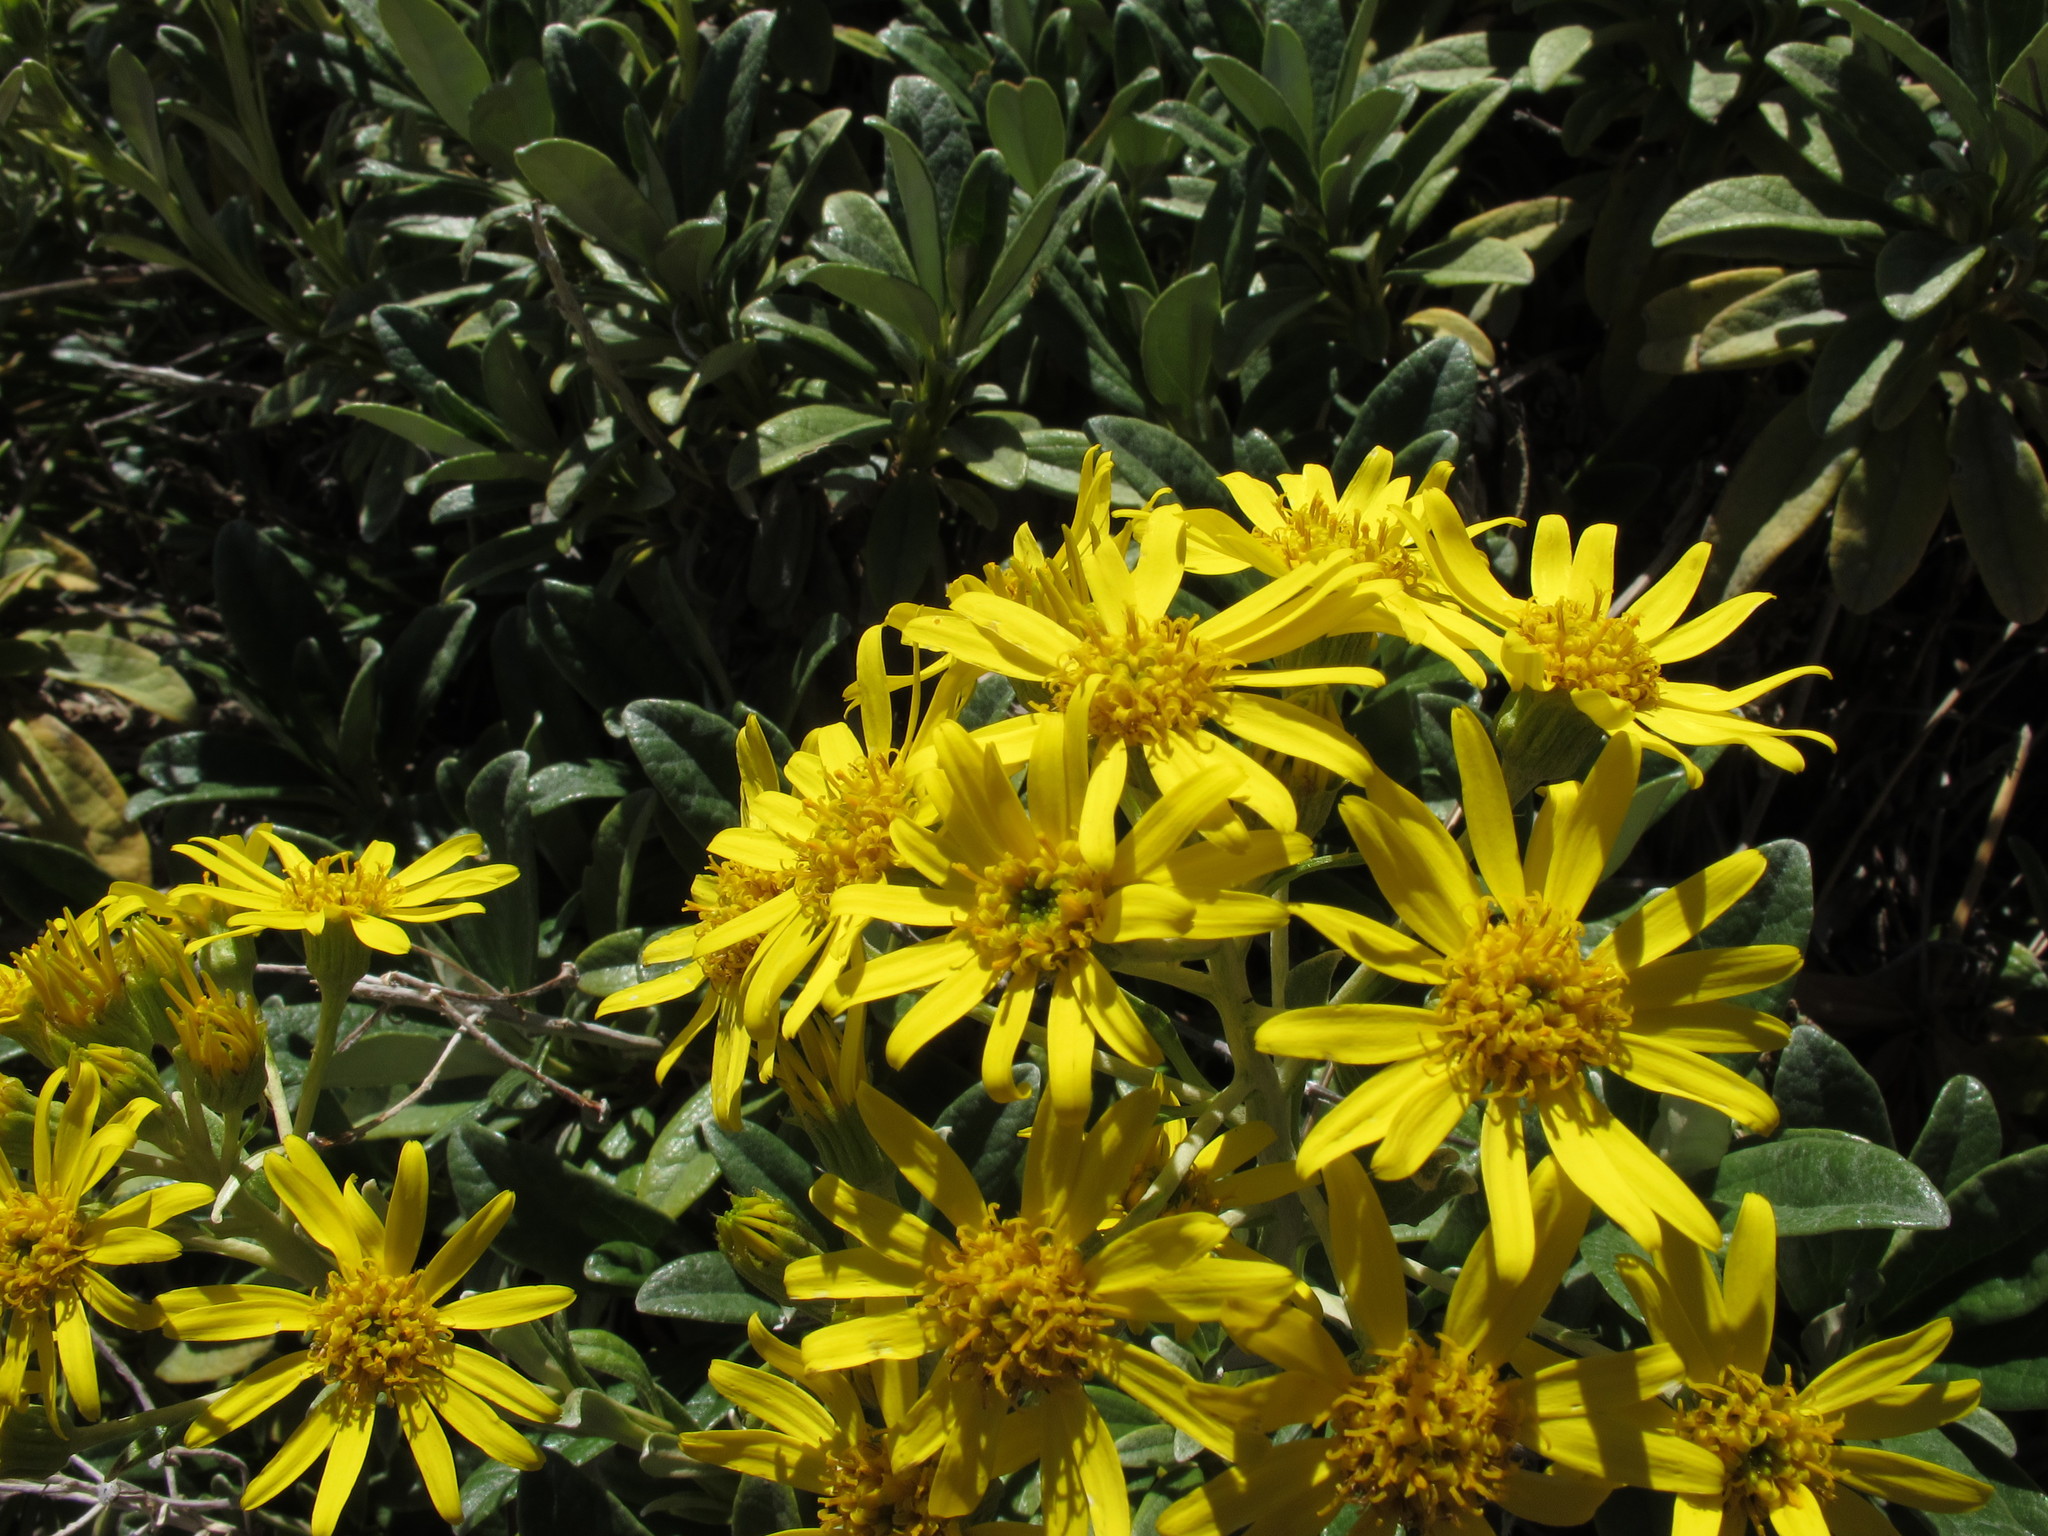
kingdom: Plantae
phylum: Tracheophyta
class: Magnoliopsida
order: Asterales
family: Asteraceae
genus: Brachyglottis
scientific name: Brachyglottis revoluta
